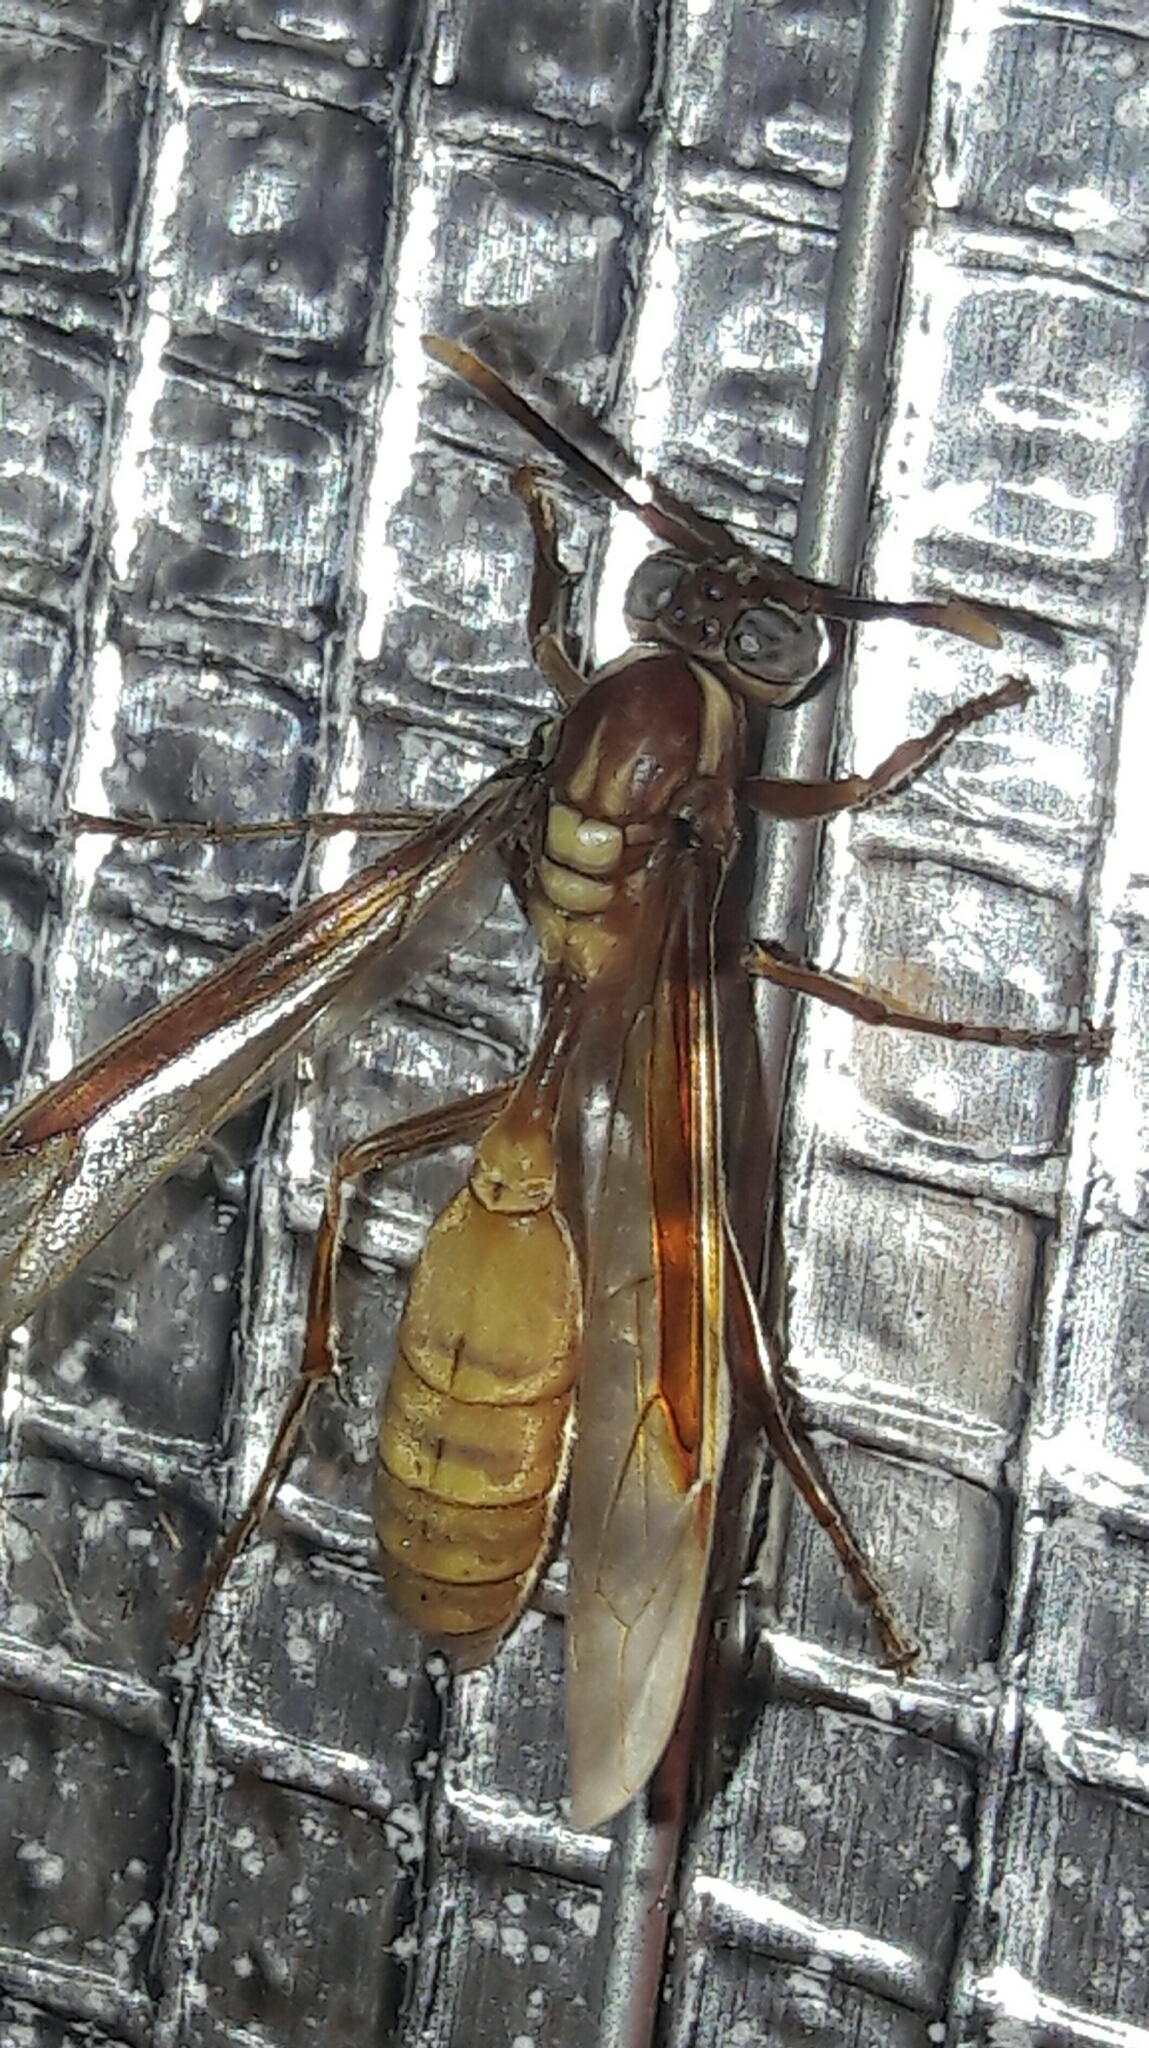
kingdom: Animalia
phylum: Arthropoda
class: Insecta
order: Hymenoptera
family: Vespidae
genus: Apoica
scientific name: Apoica flavissima
